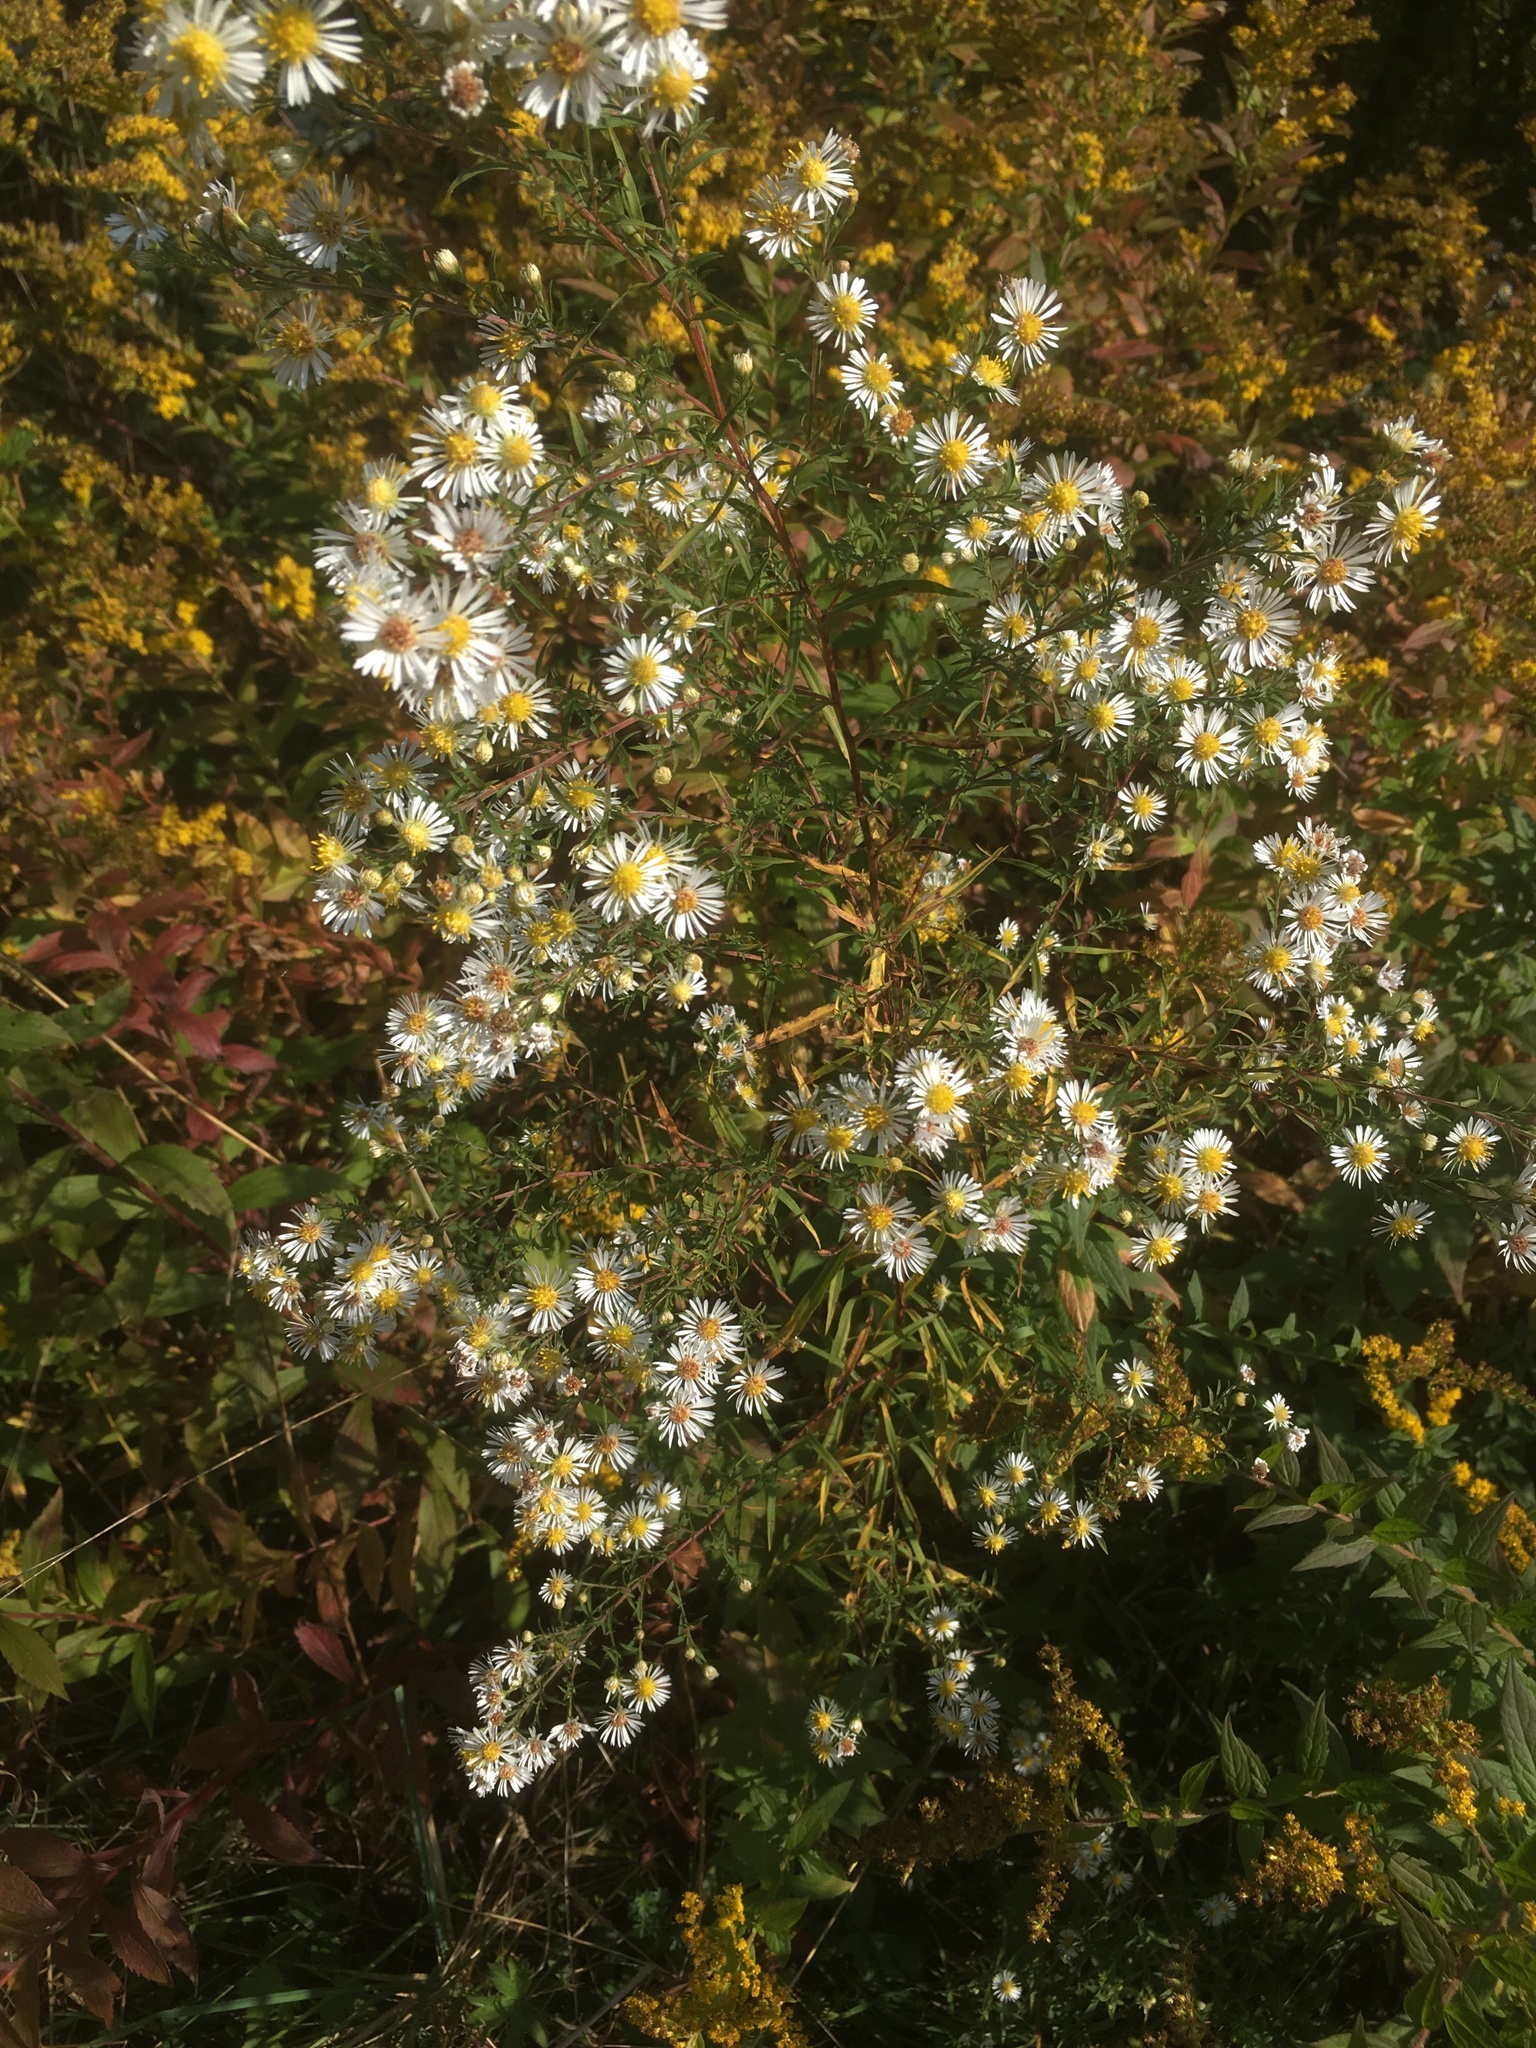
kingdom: Plantae
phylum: Tracheophyta
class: Magnoliopsida
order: Asterales
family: Asteraceae
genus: Symphyotrichum
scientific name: Symphyotrichum lanceolatum
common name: Panicled aster
